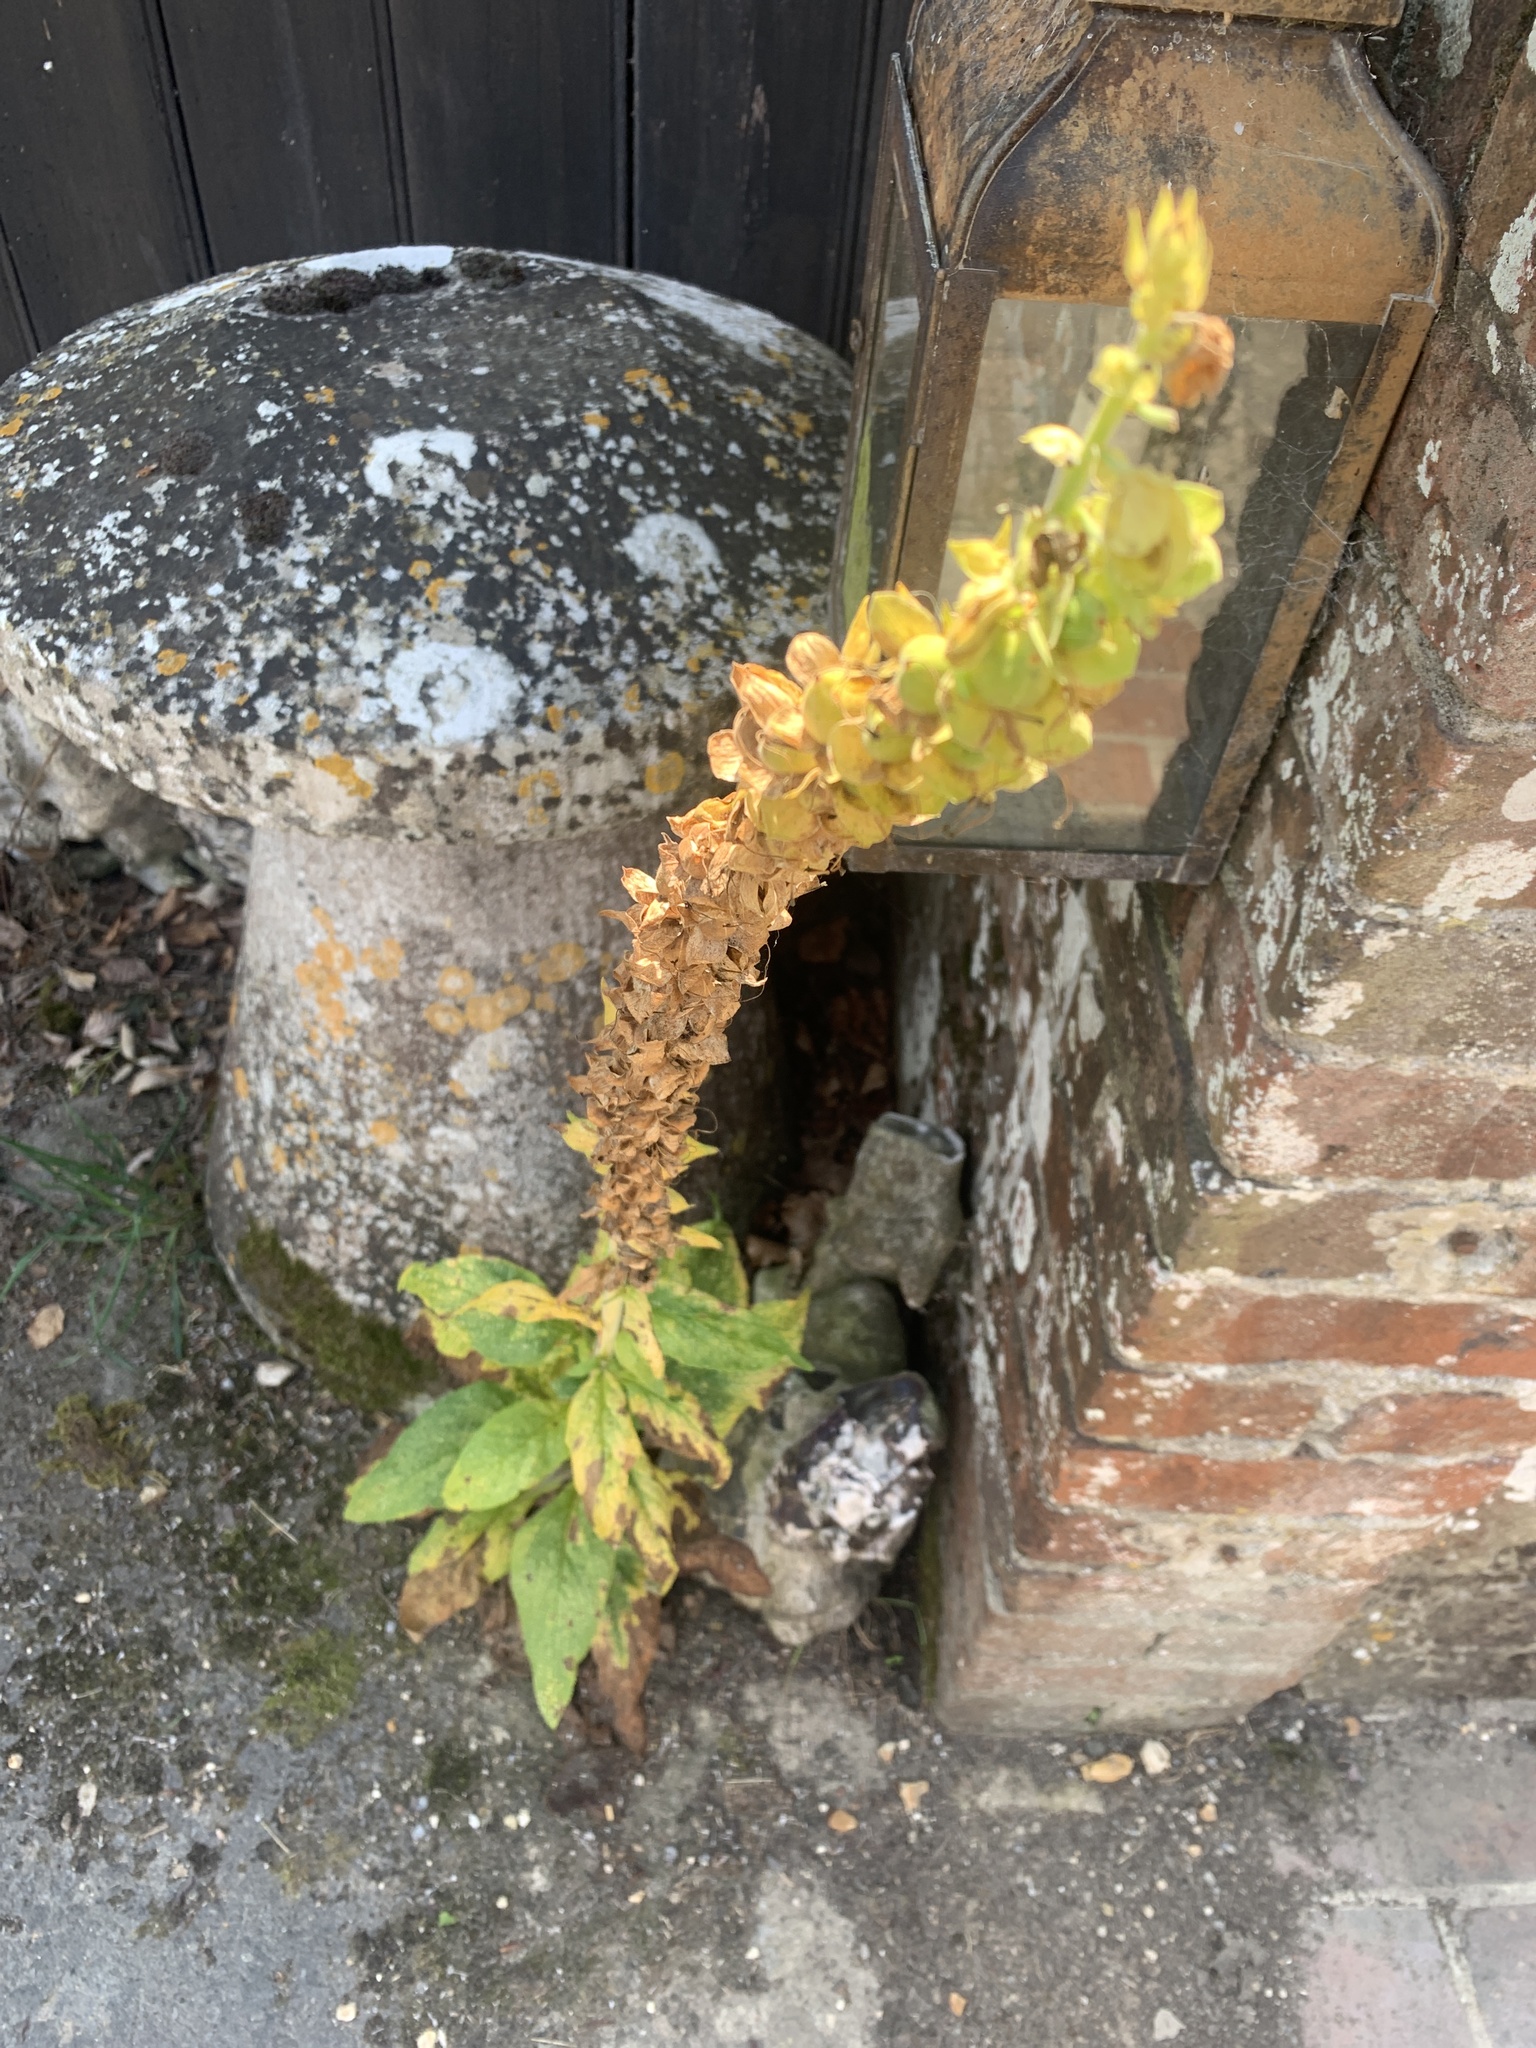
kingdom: Plantae
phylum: Tracheophyta
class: Magnoliopsida
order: Lamiales
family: Plantaginaceae
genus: Digitalis
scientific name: Digitalis purpurea
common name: Foxglove
